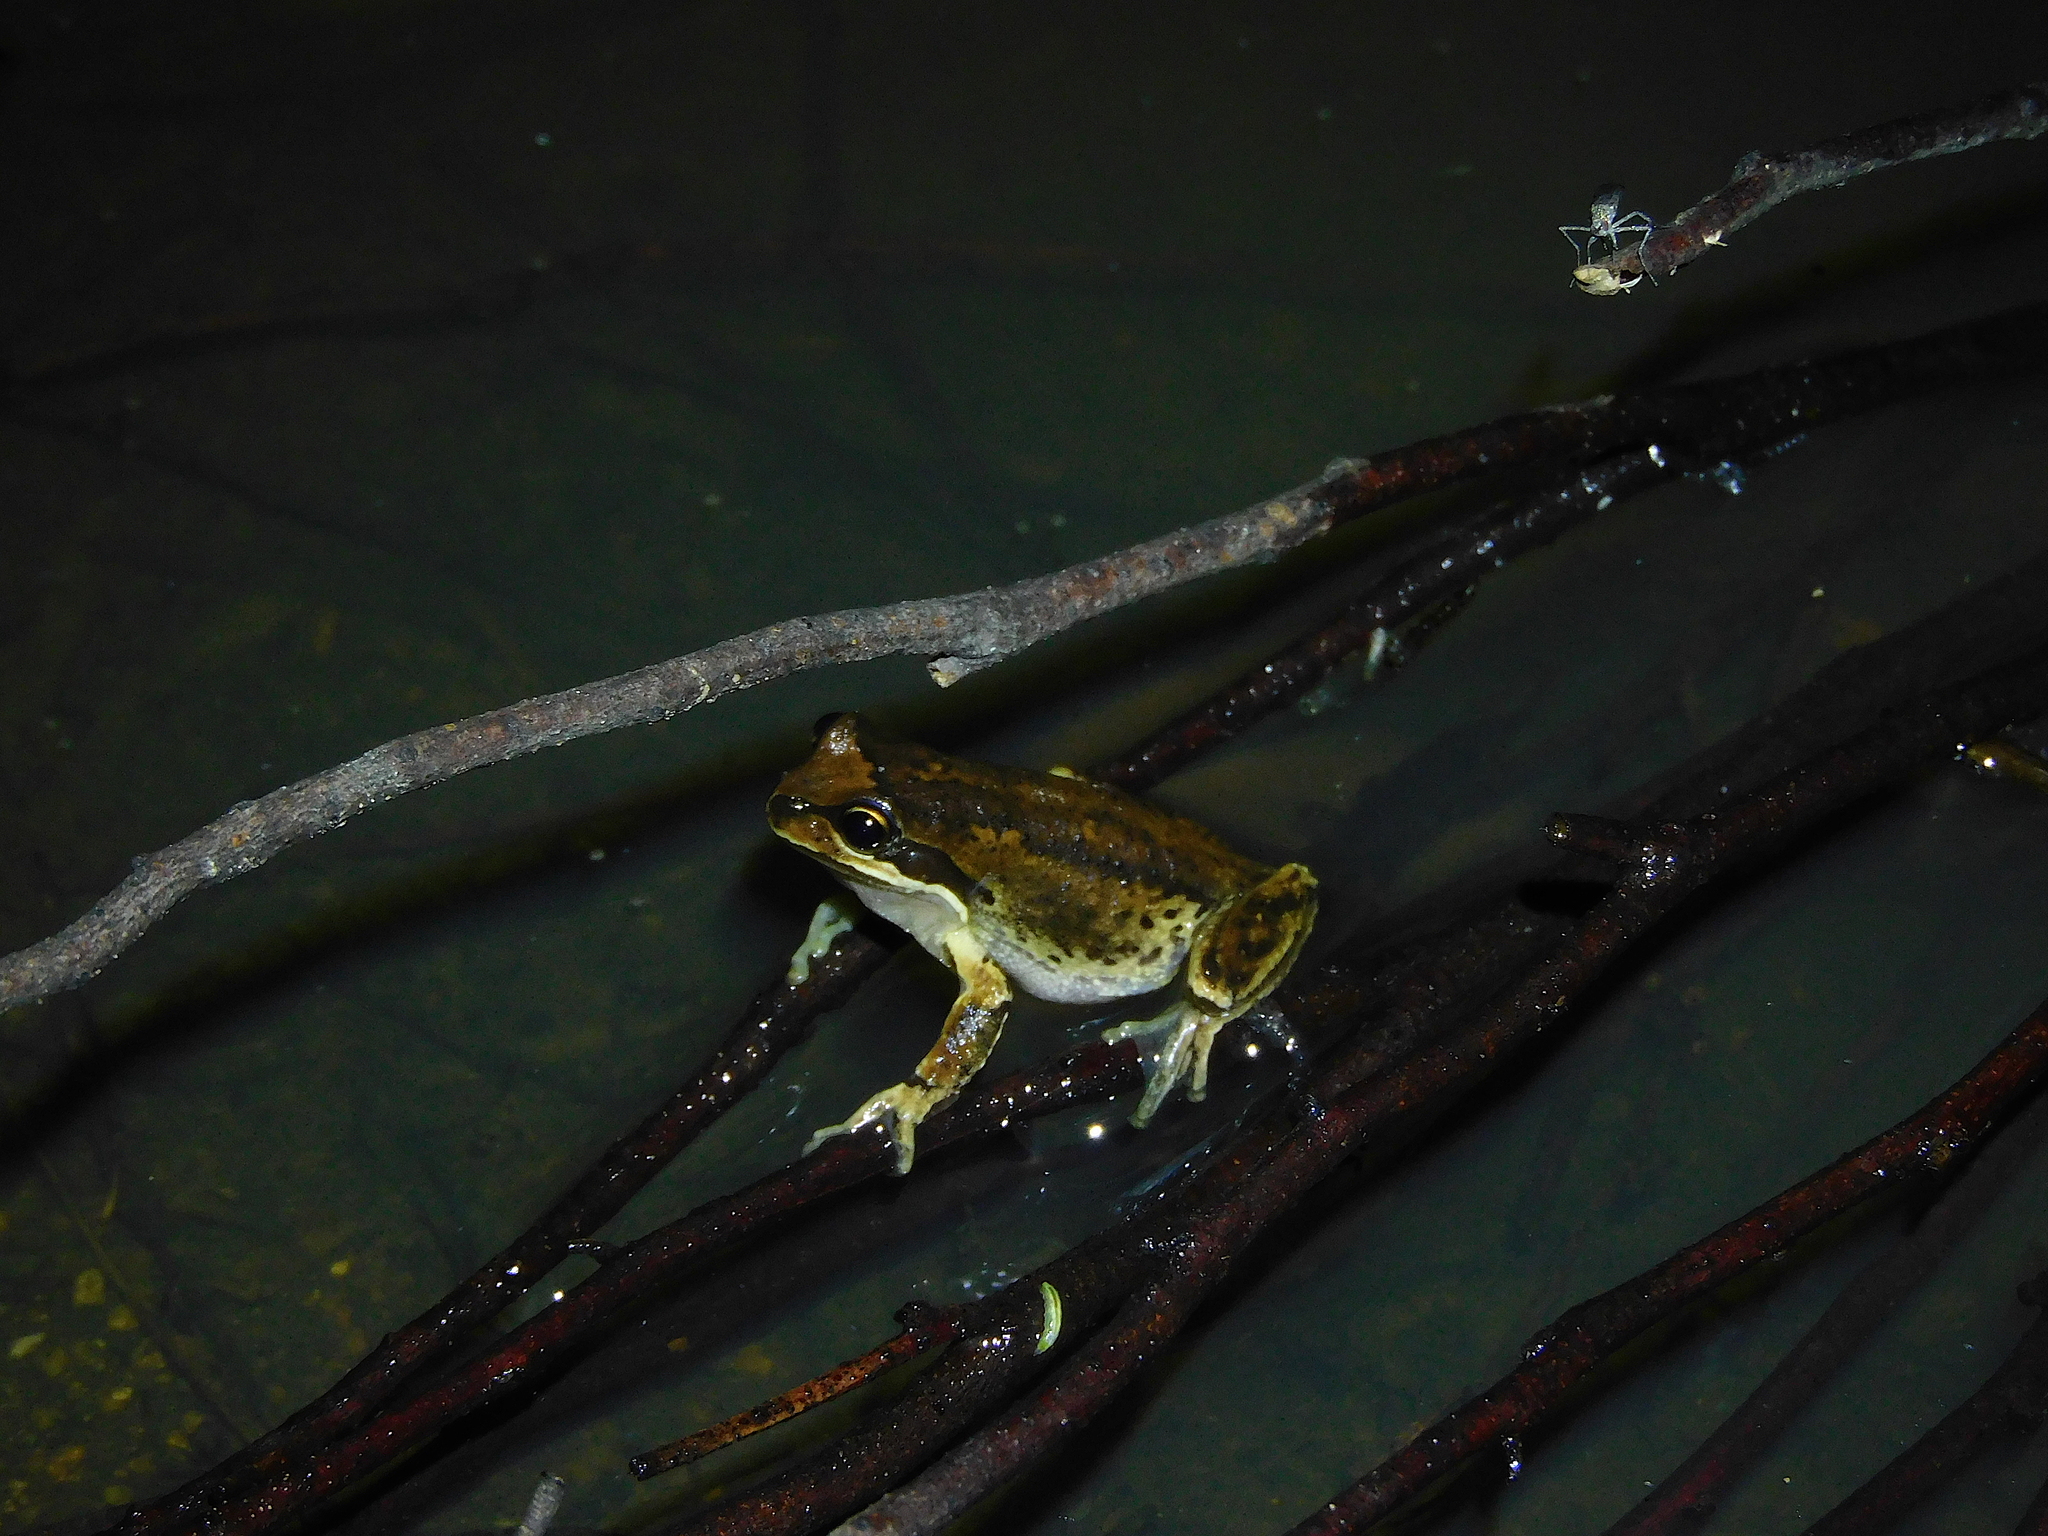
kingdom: Animalia
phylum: Chordata
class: Amphibia
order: Anura
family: Pelodryadidae
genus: Litoria
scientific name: Litoria ewingii
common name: Southern brown tree frog
